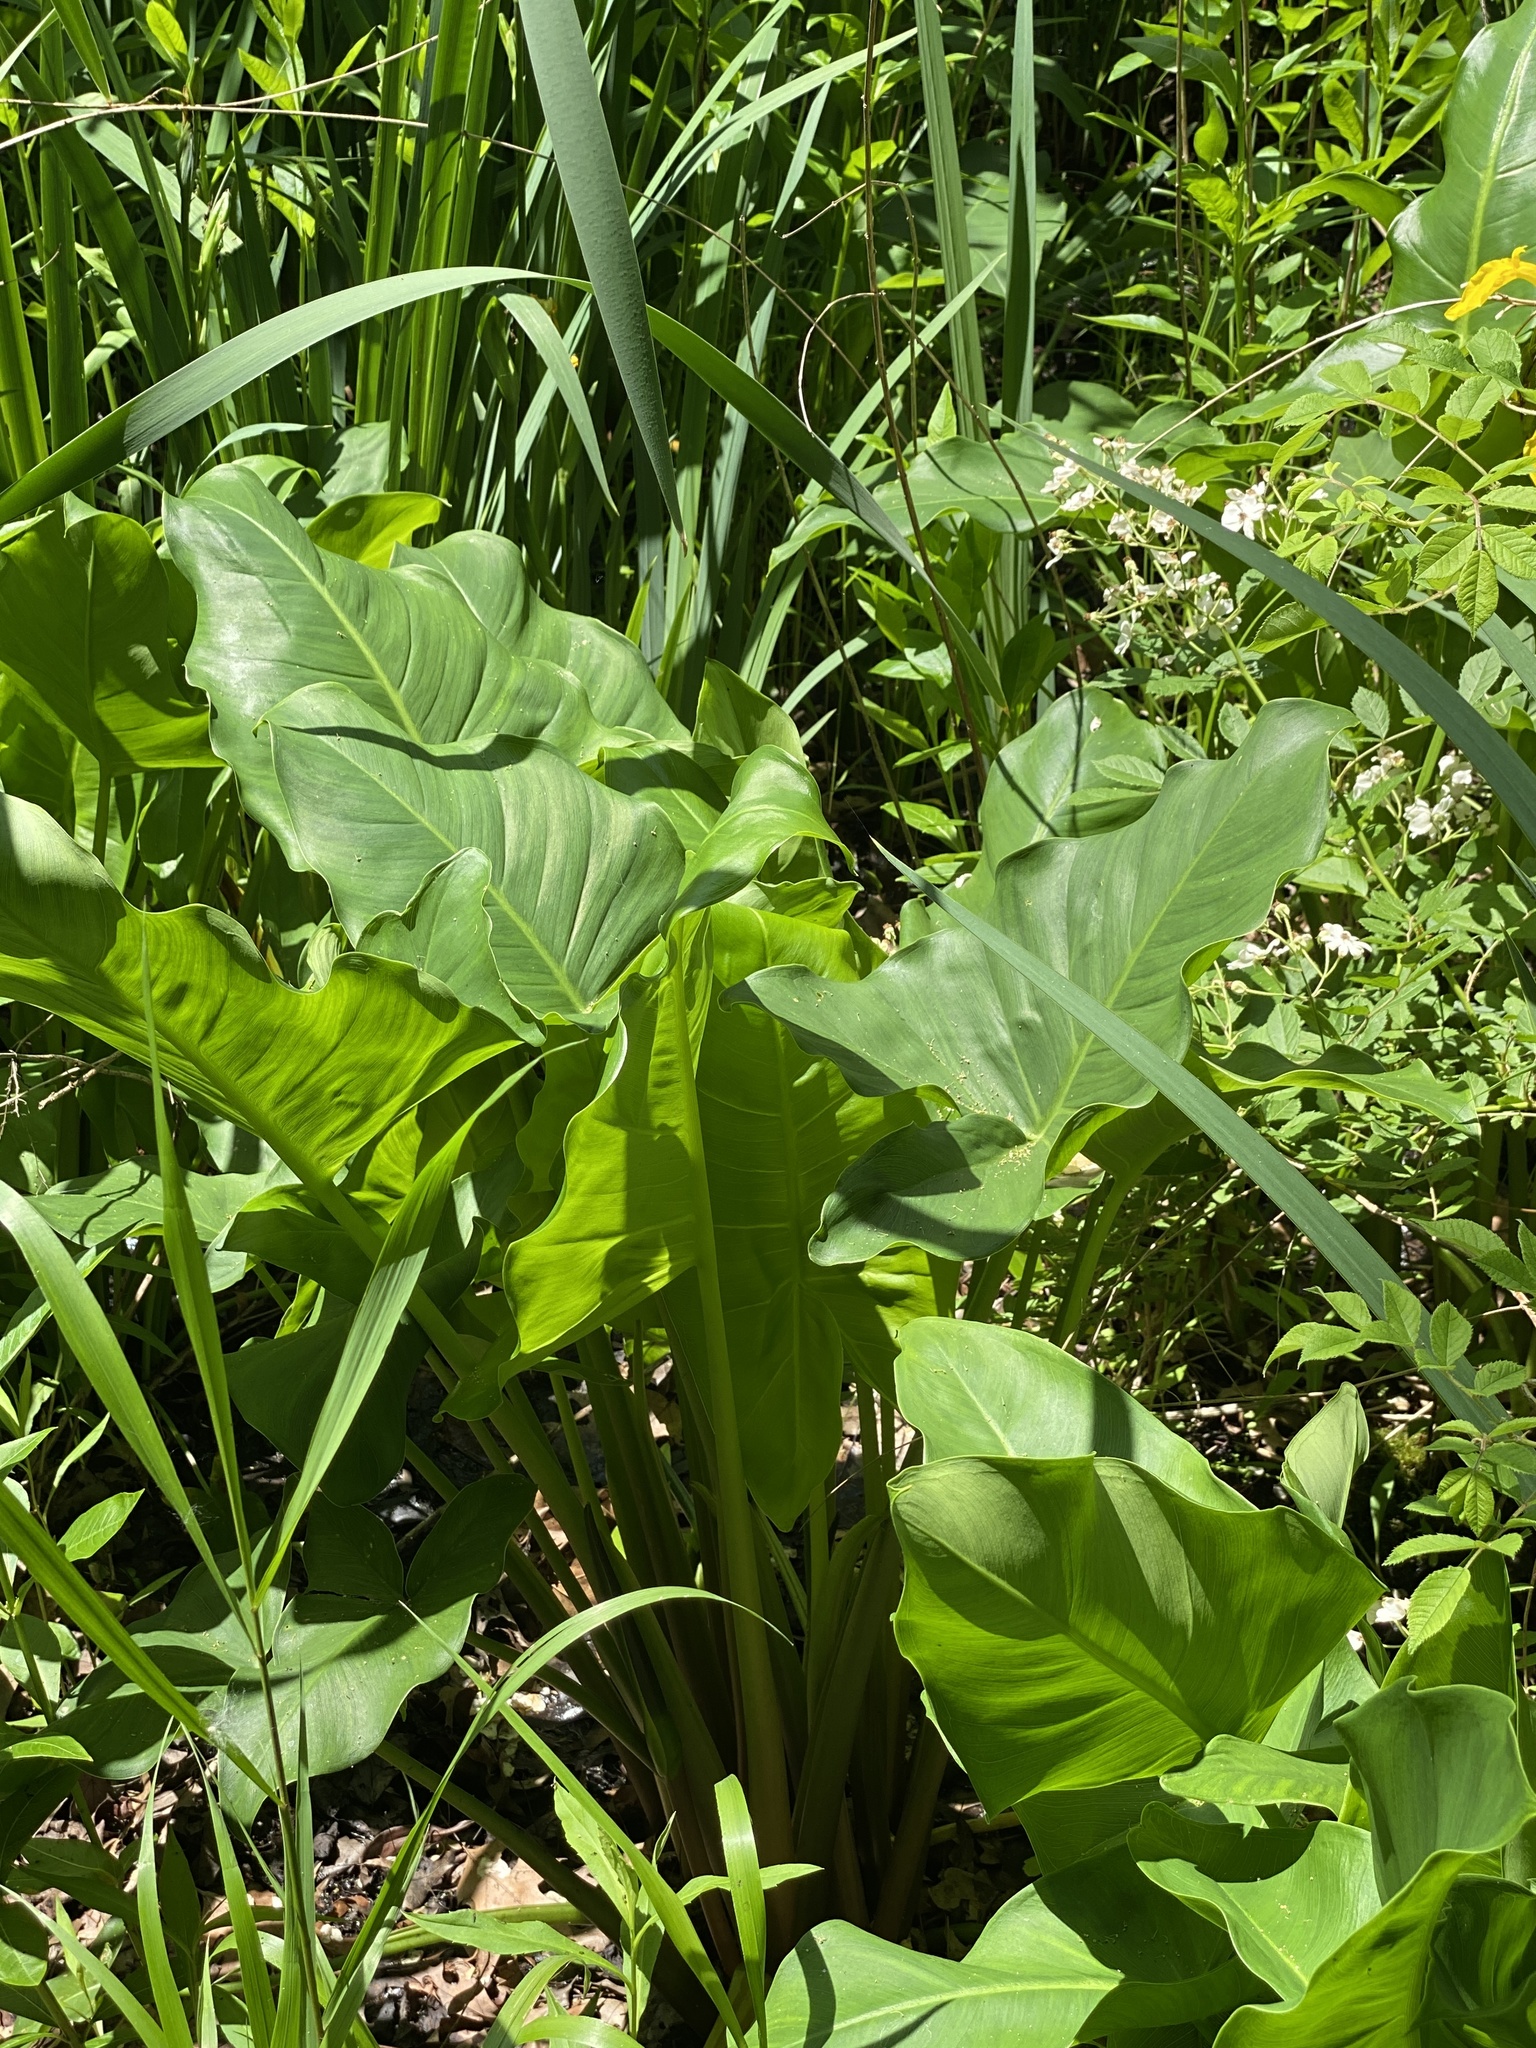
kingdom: Plantae
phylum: Tracheophyta
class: Liliopsida
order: Alismatales
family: Araceae
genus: Peltandra
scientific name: Peltandra virginica
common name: Arrow arum
